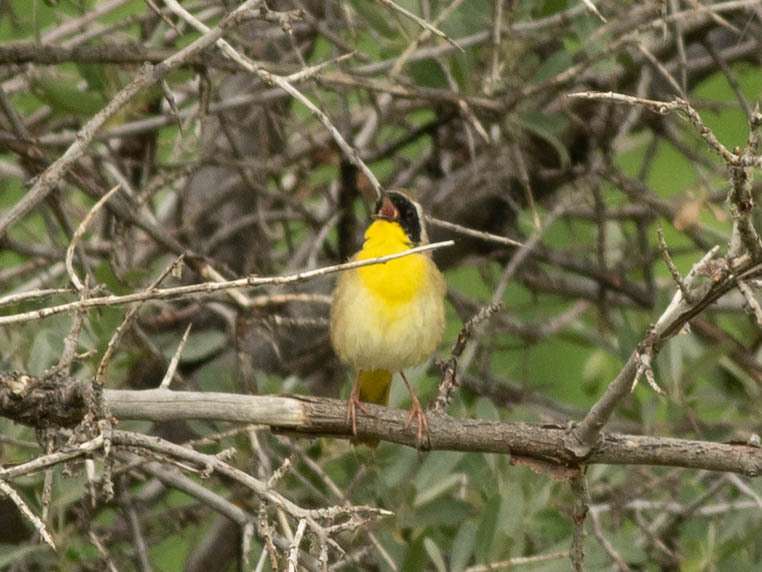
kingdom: Animalia
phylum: Chordata
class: Aves
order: Passeriformes
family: Parulidae
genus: Geothlypis
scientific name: Geothlypis trichas
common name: Common yellowthroat
